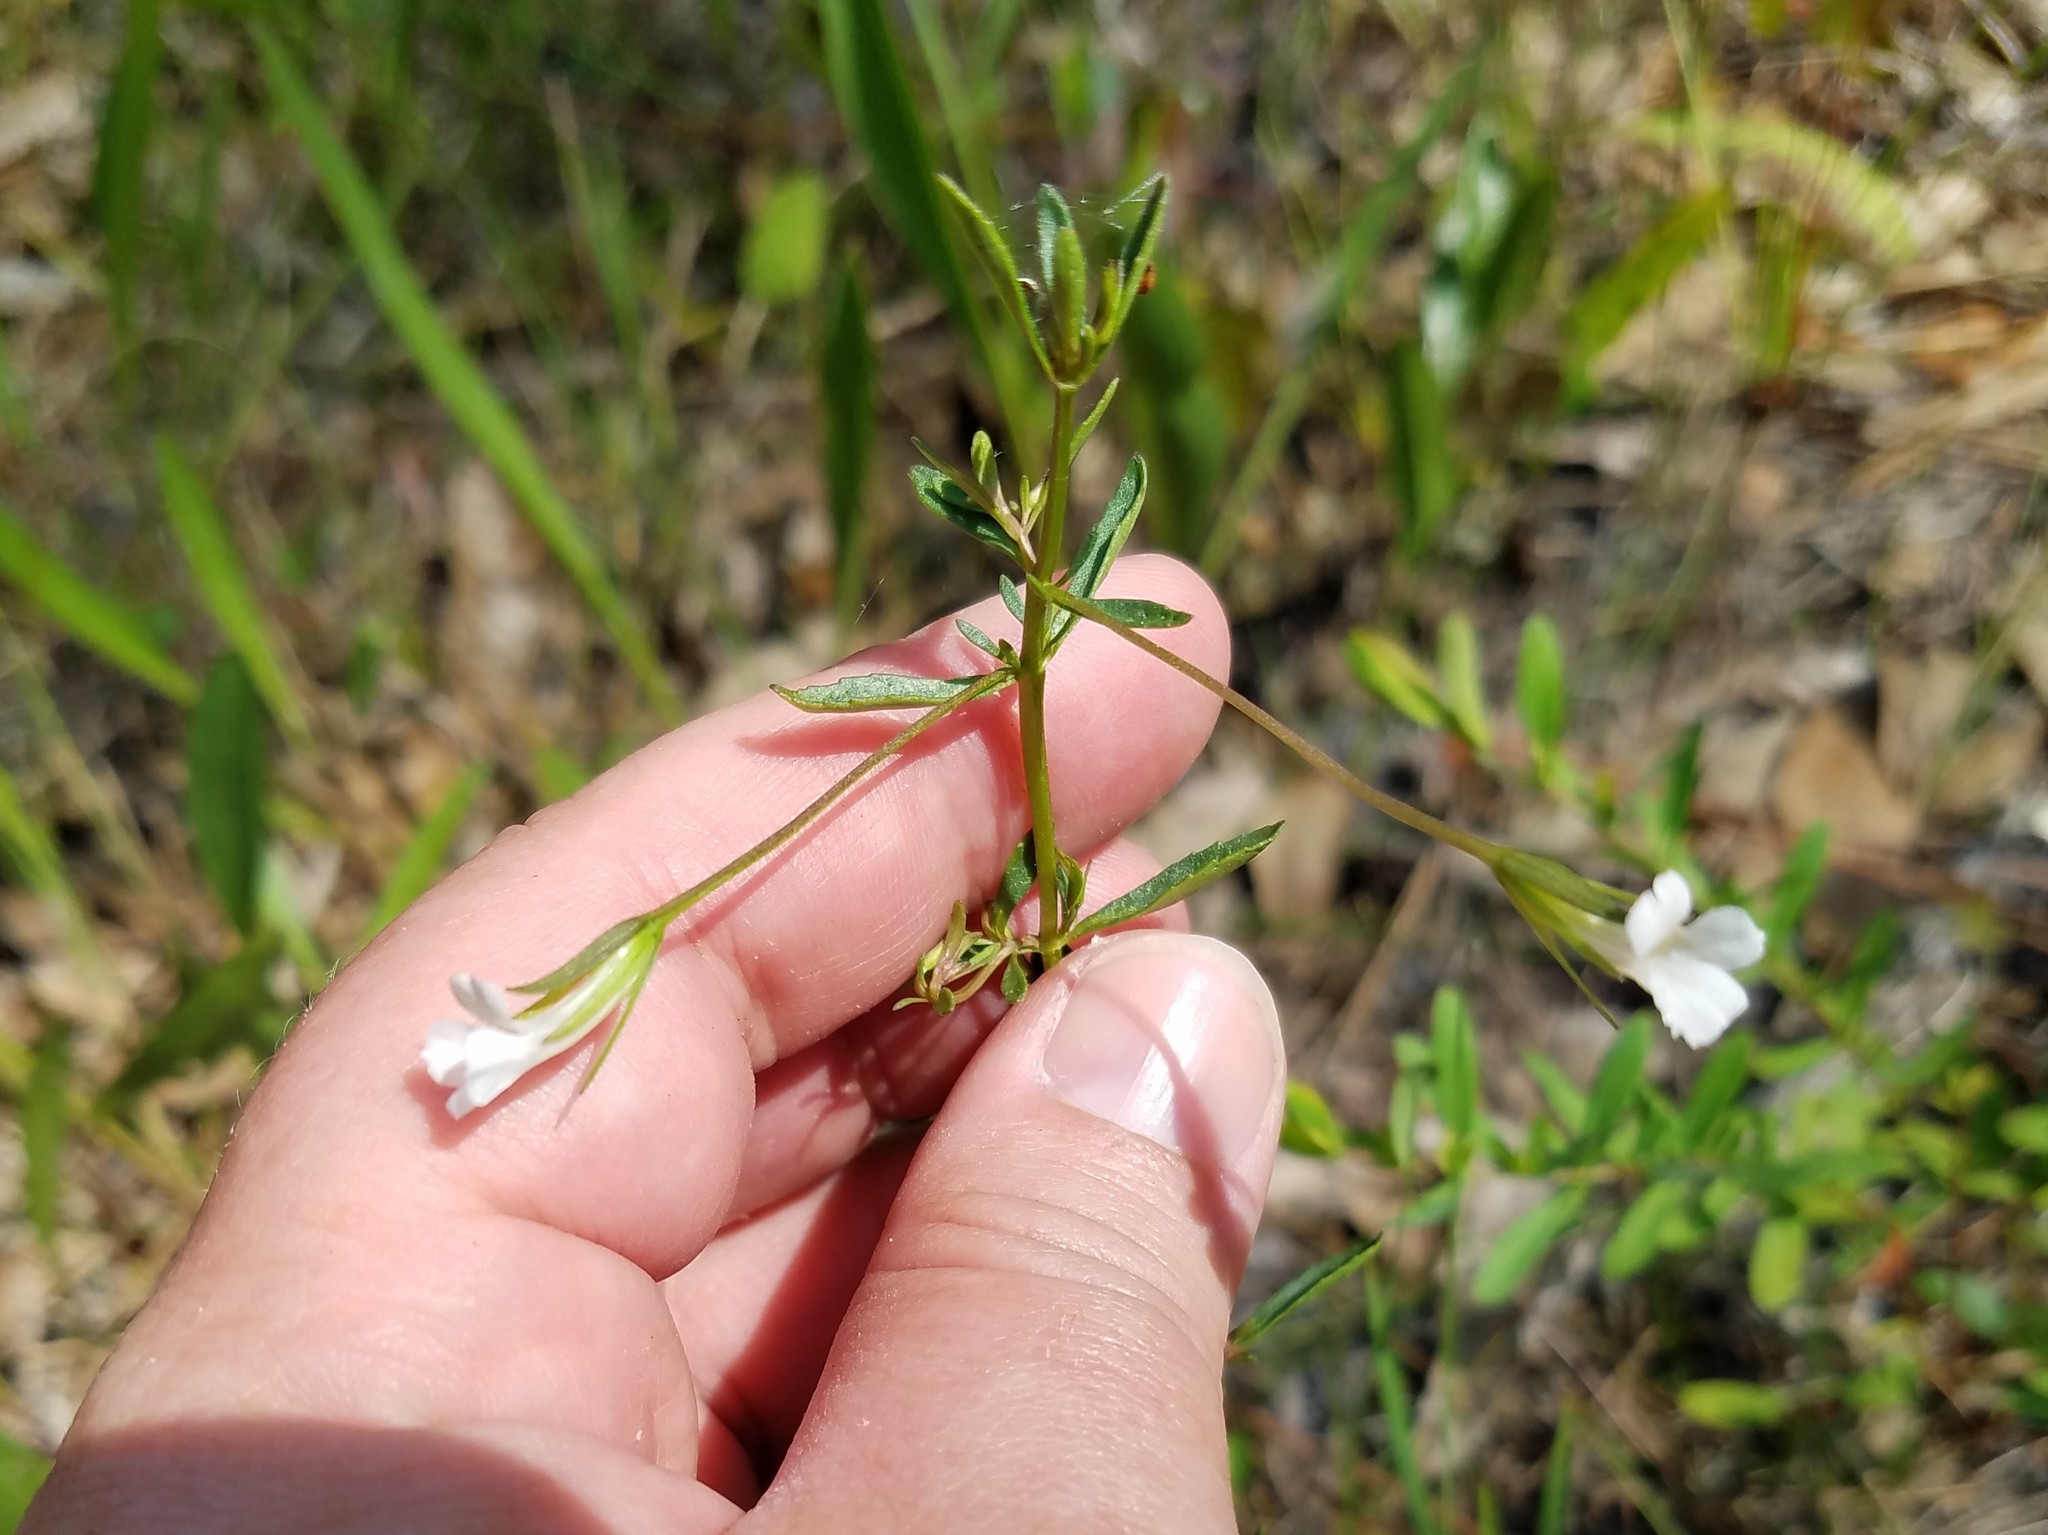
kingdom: Plantae
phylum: Tracheophyta
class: Magnoliopsida
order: Lamiales
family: Plantaginaceae
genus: Mecardonia
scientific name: Mecardonia acuminata
